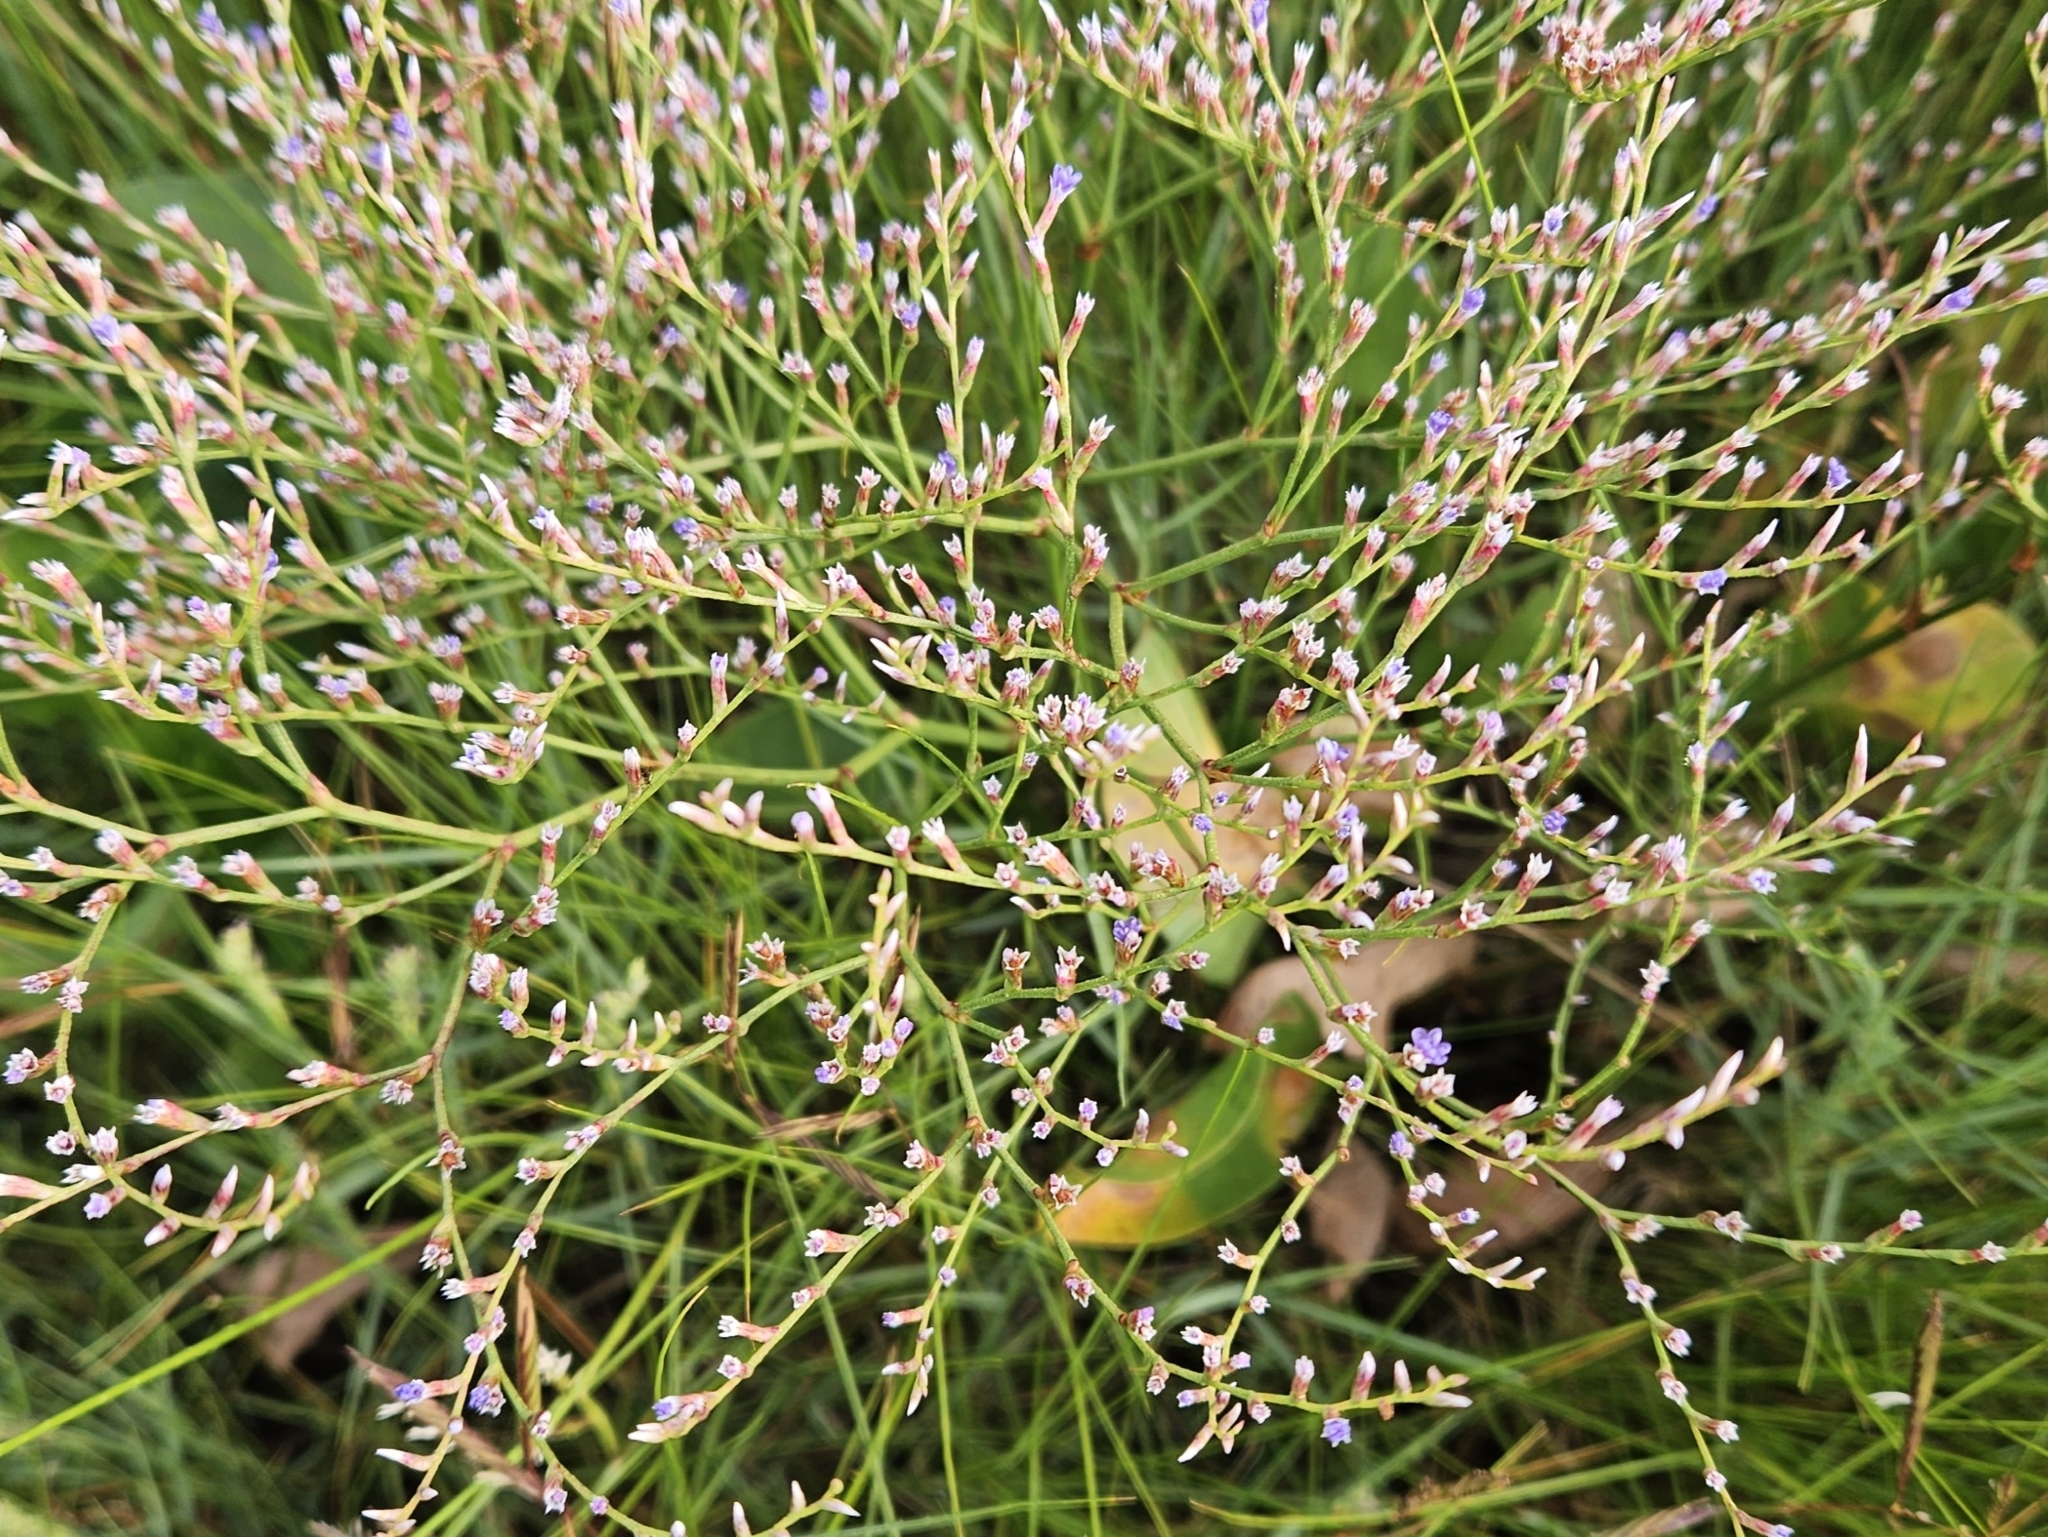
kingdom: Plantae
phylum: Tracheophyta
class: Magnoliopsida
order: Caryophyllales
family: Plumbaginaceae
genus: Limonium
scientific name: Limonium carolinianum
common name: Carolina sea lavender
